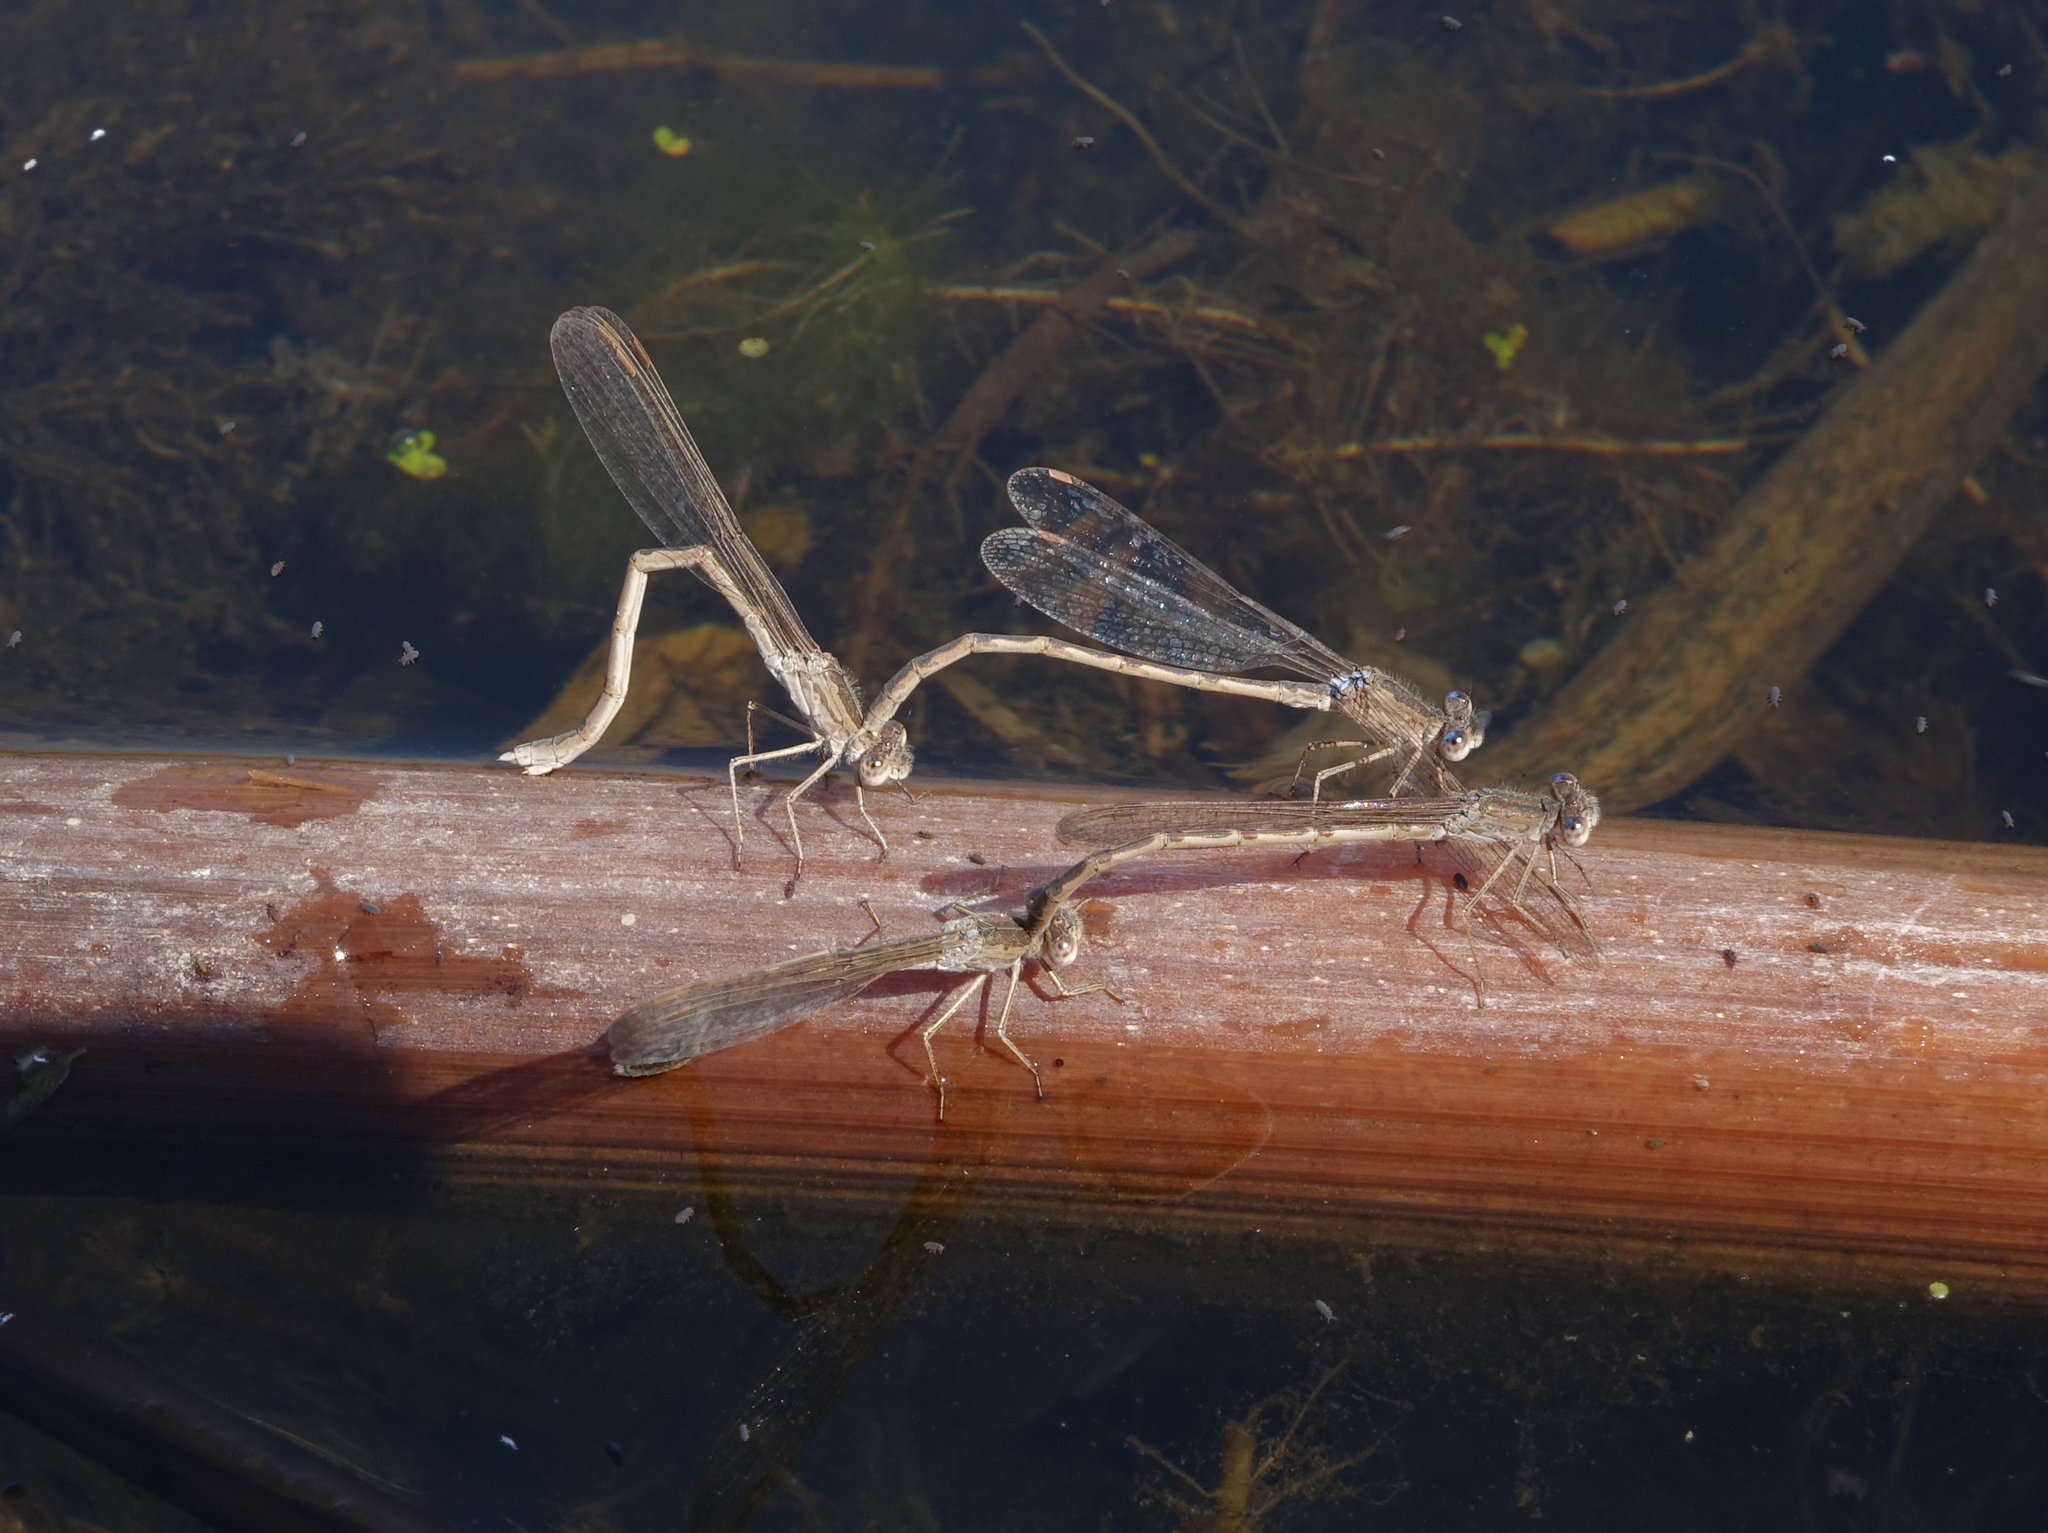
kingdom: Animalia
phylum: Arthropoda
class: Insecta
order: Odonata
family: Lestidae
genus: Sympecma
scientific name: Sympecma paedisca
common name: Siberian winter damsel
